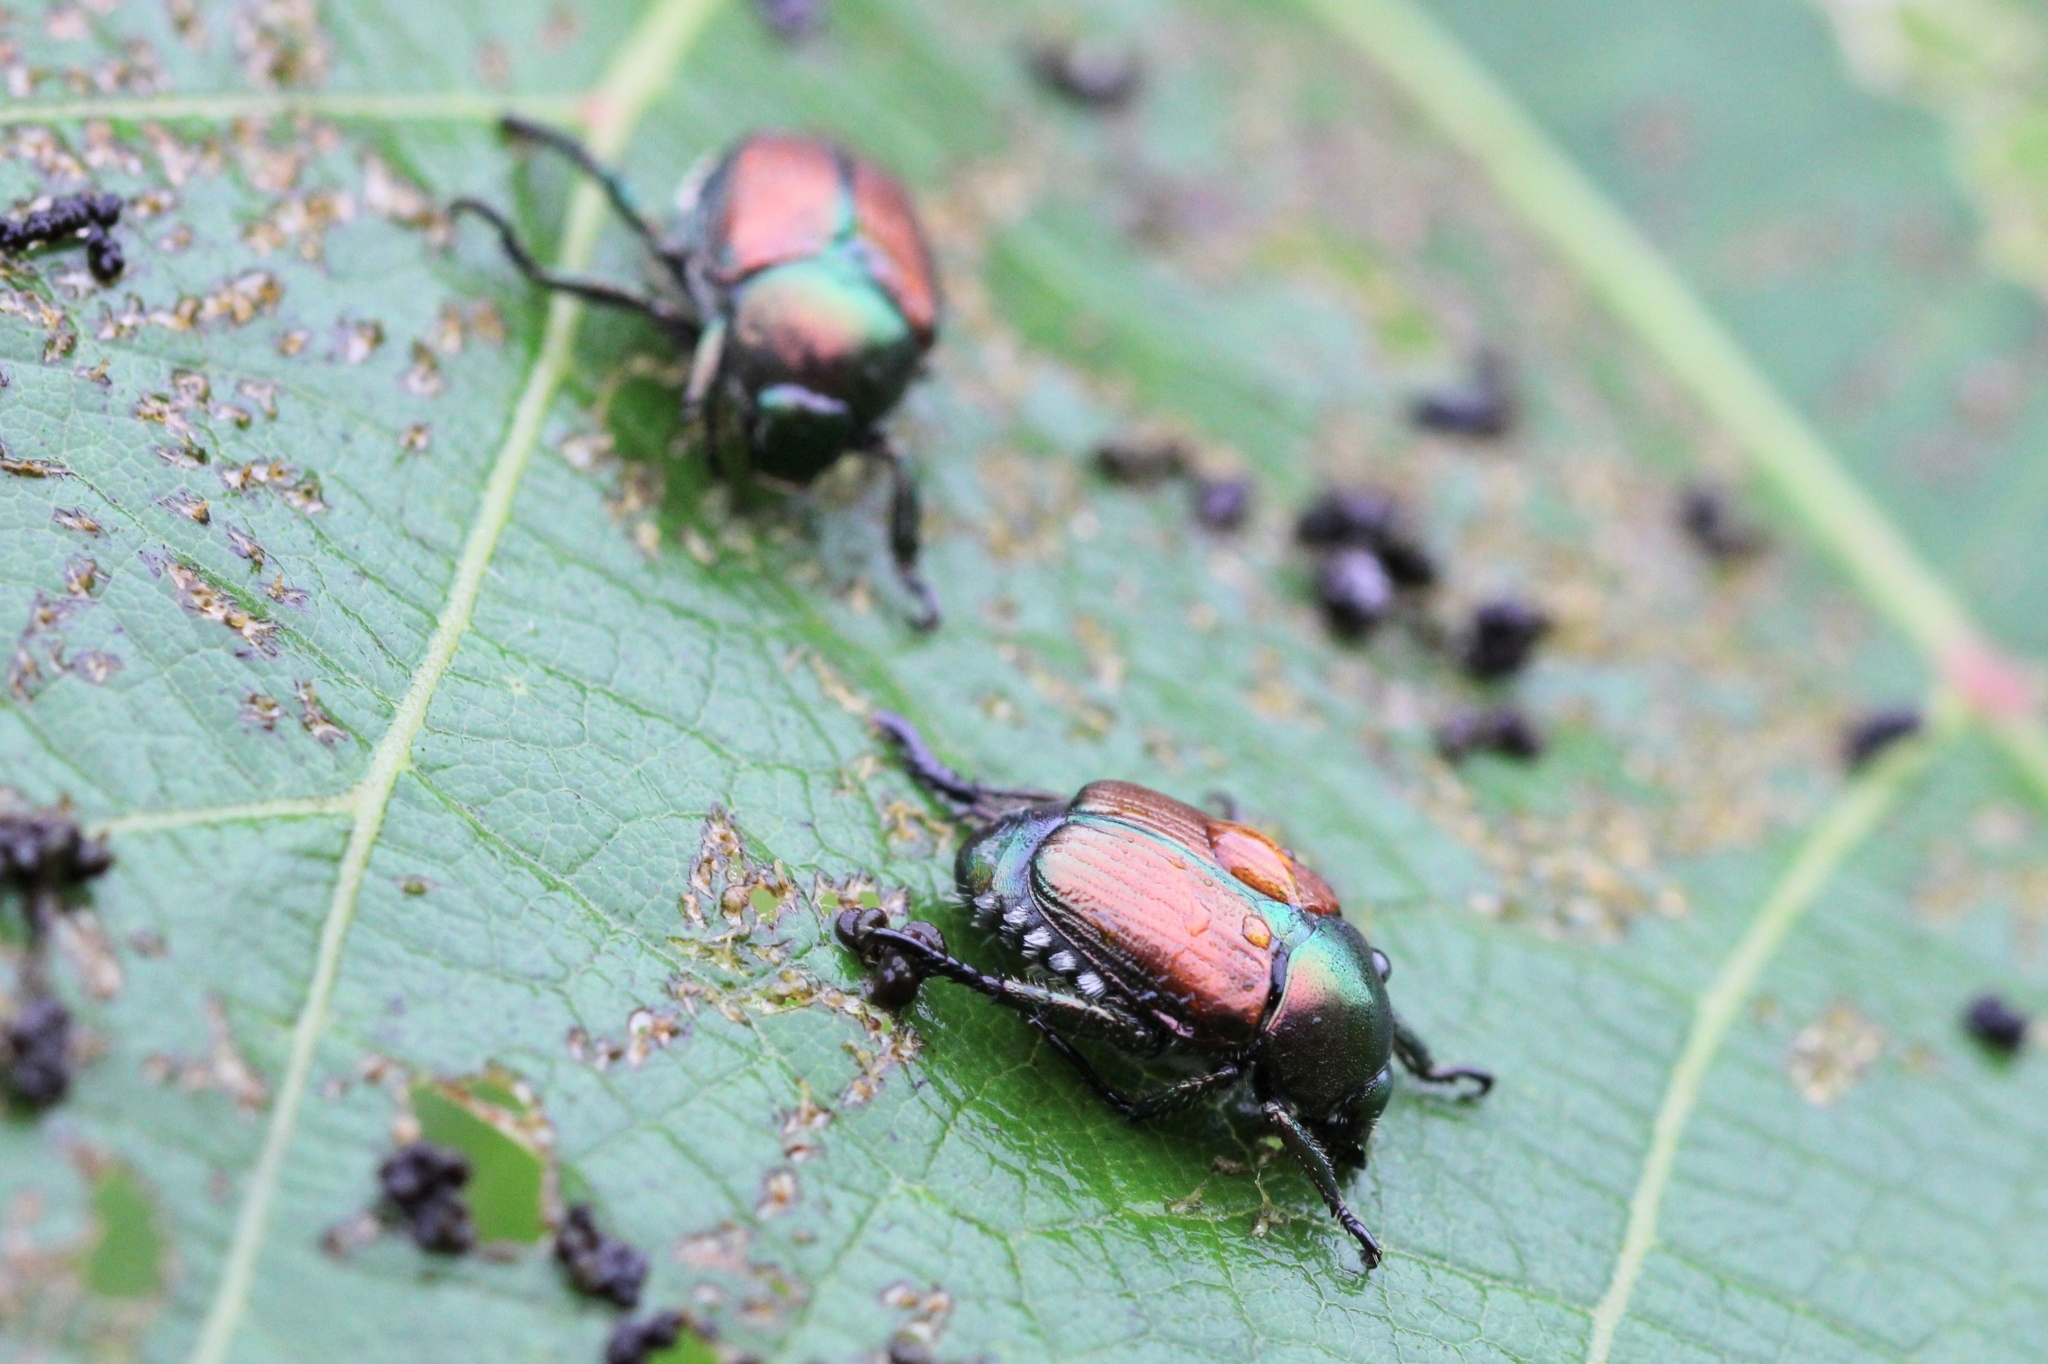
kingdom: Animalia
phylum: Arthropoda
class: Insecta
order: Coleoptera
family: Scarabaeidae
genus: Popillia
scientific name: Popillia japonica
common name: Japanese beetle
